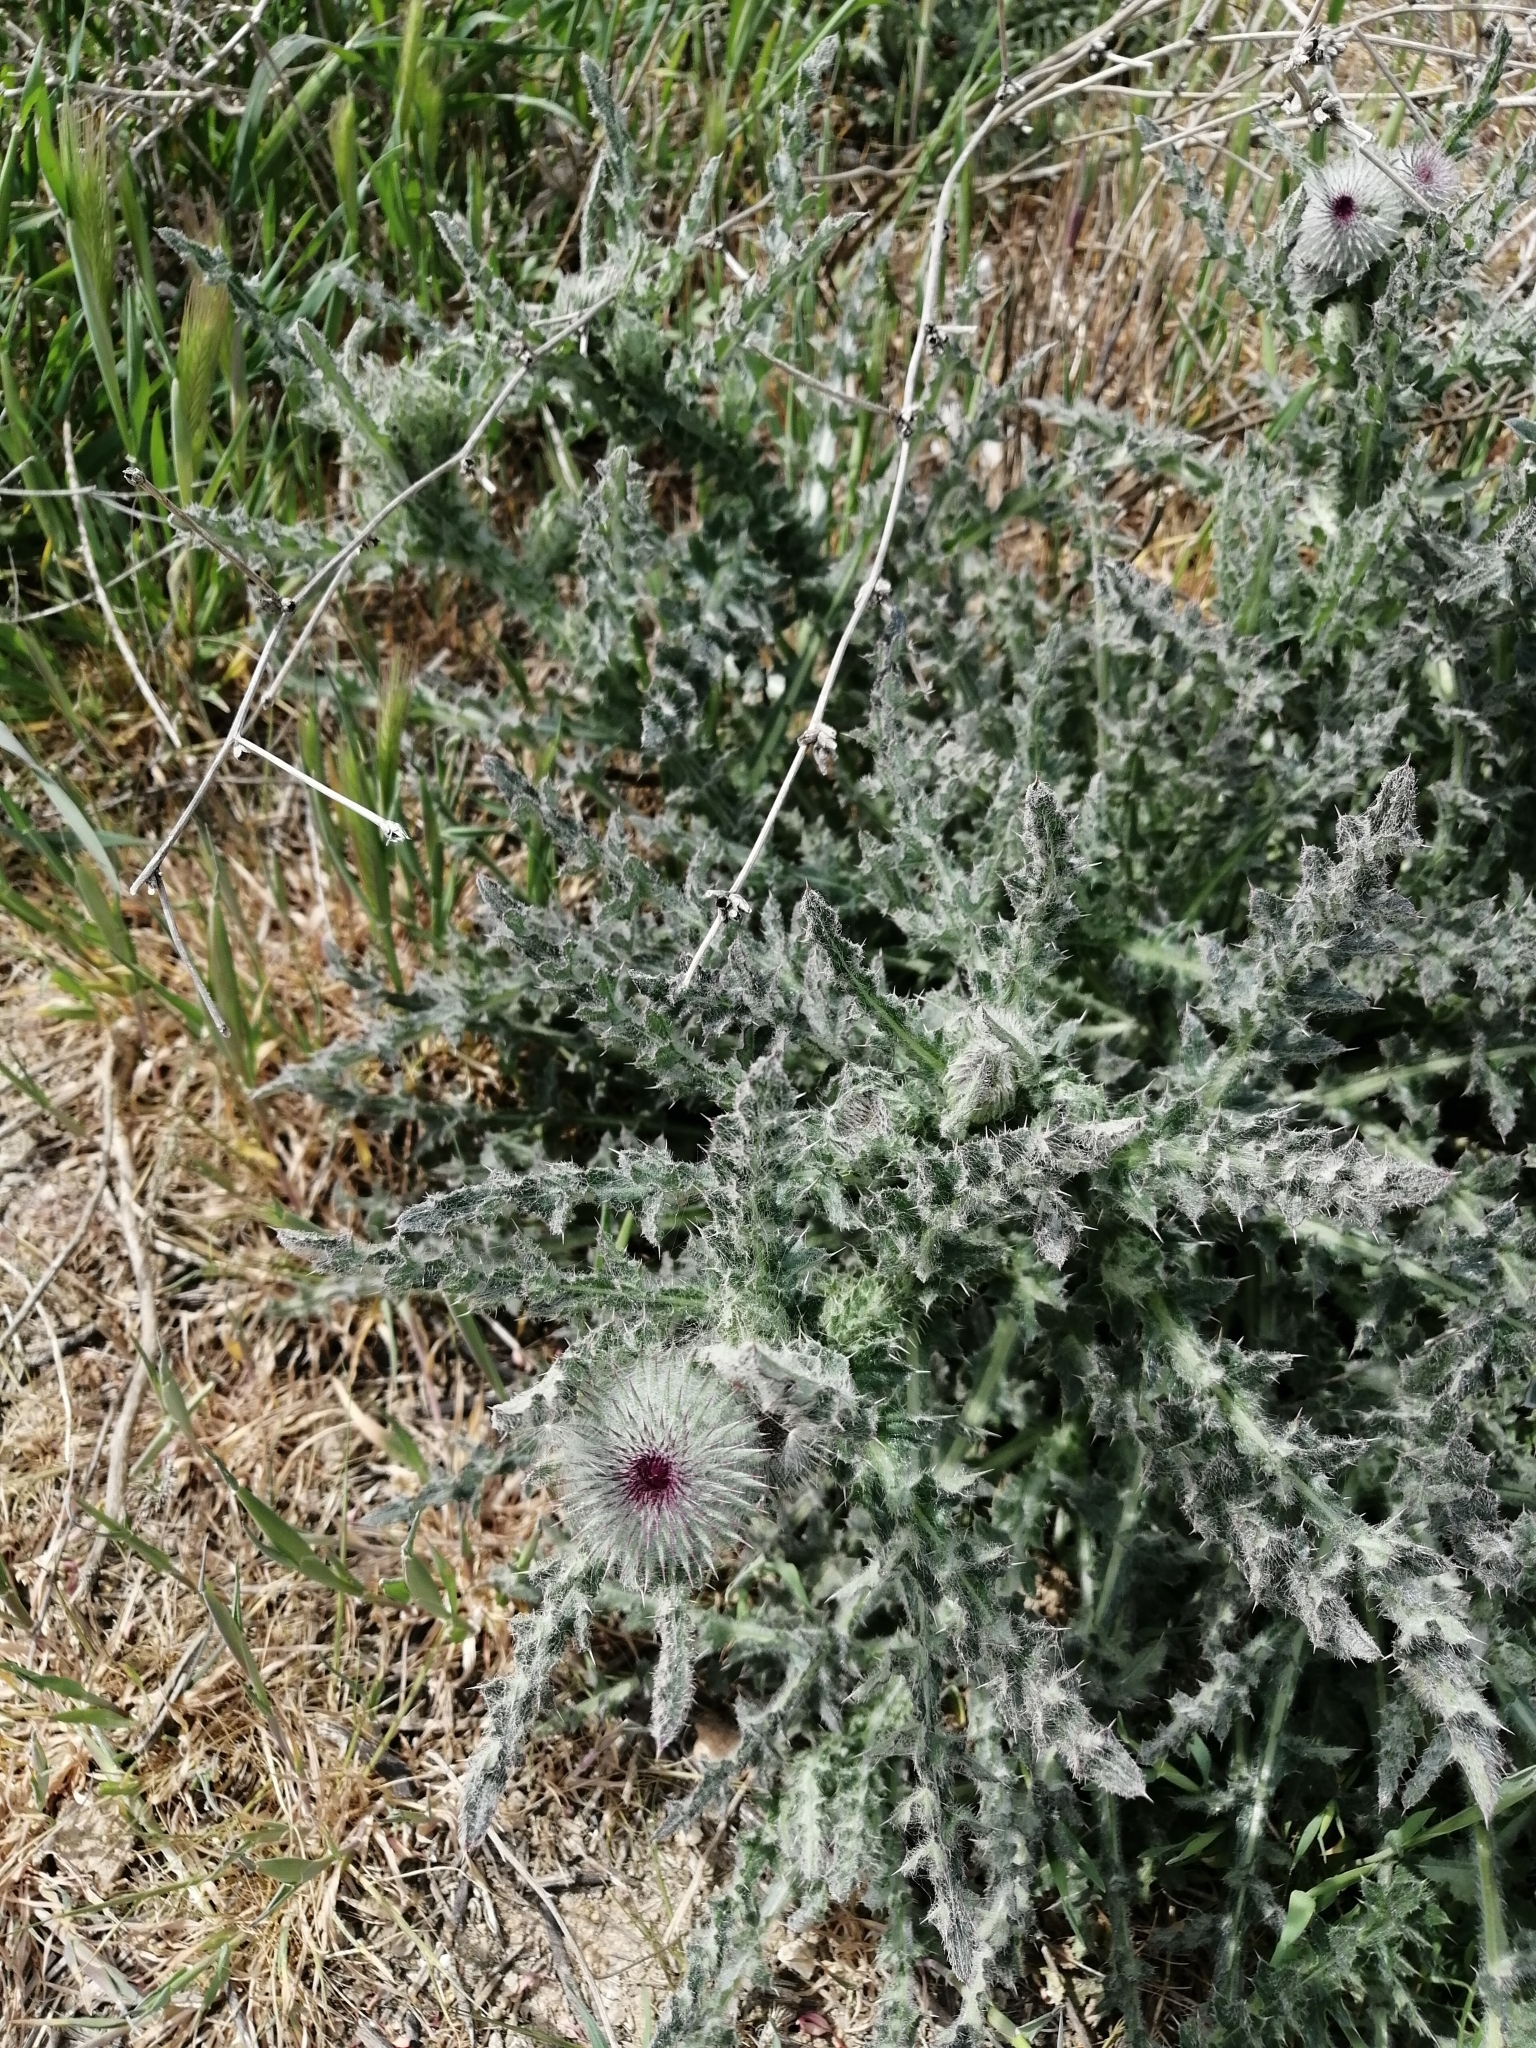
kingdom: Plantae
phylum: Tracheophyta
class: Magnoliopsida
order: Asterales
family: Asteraceae
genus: Carduus
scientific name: Carduus uncinatus
